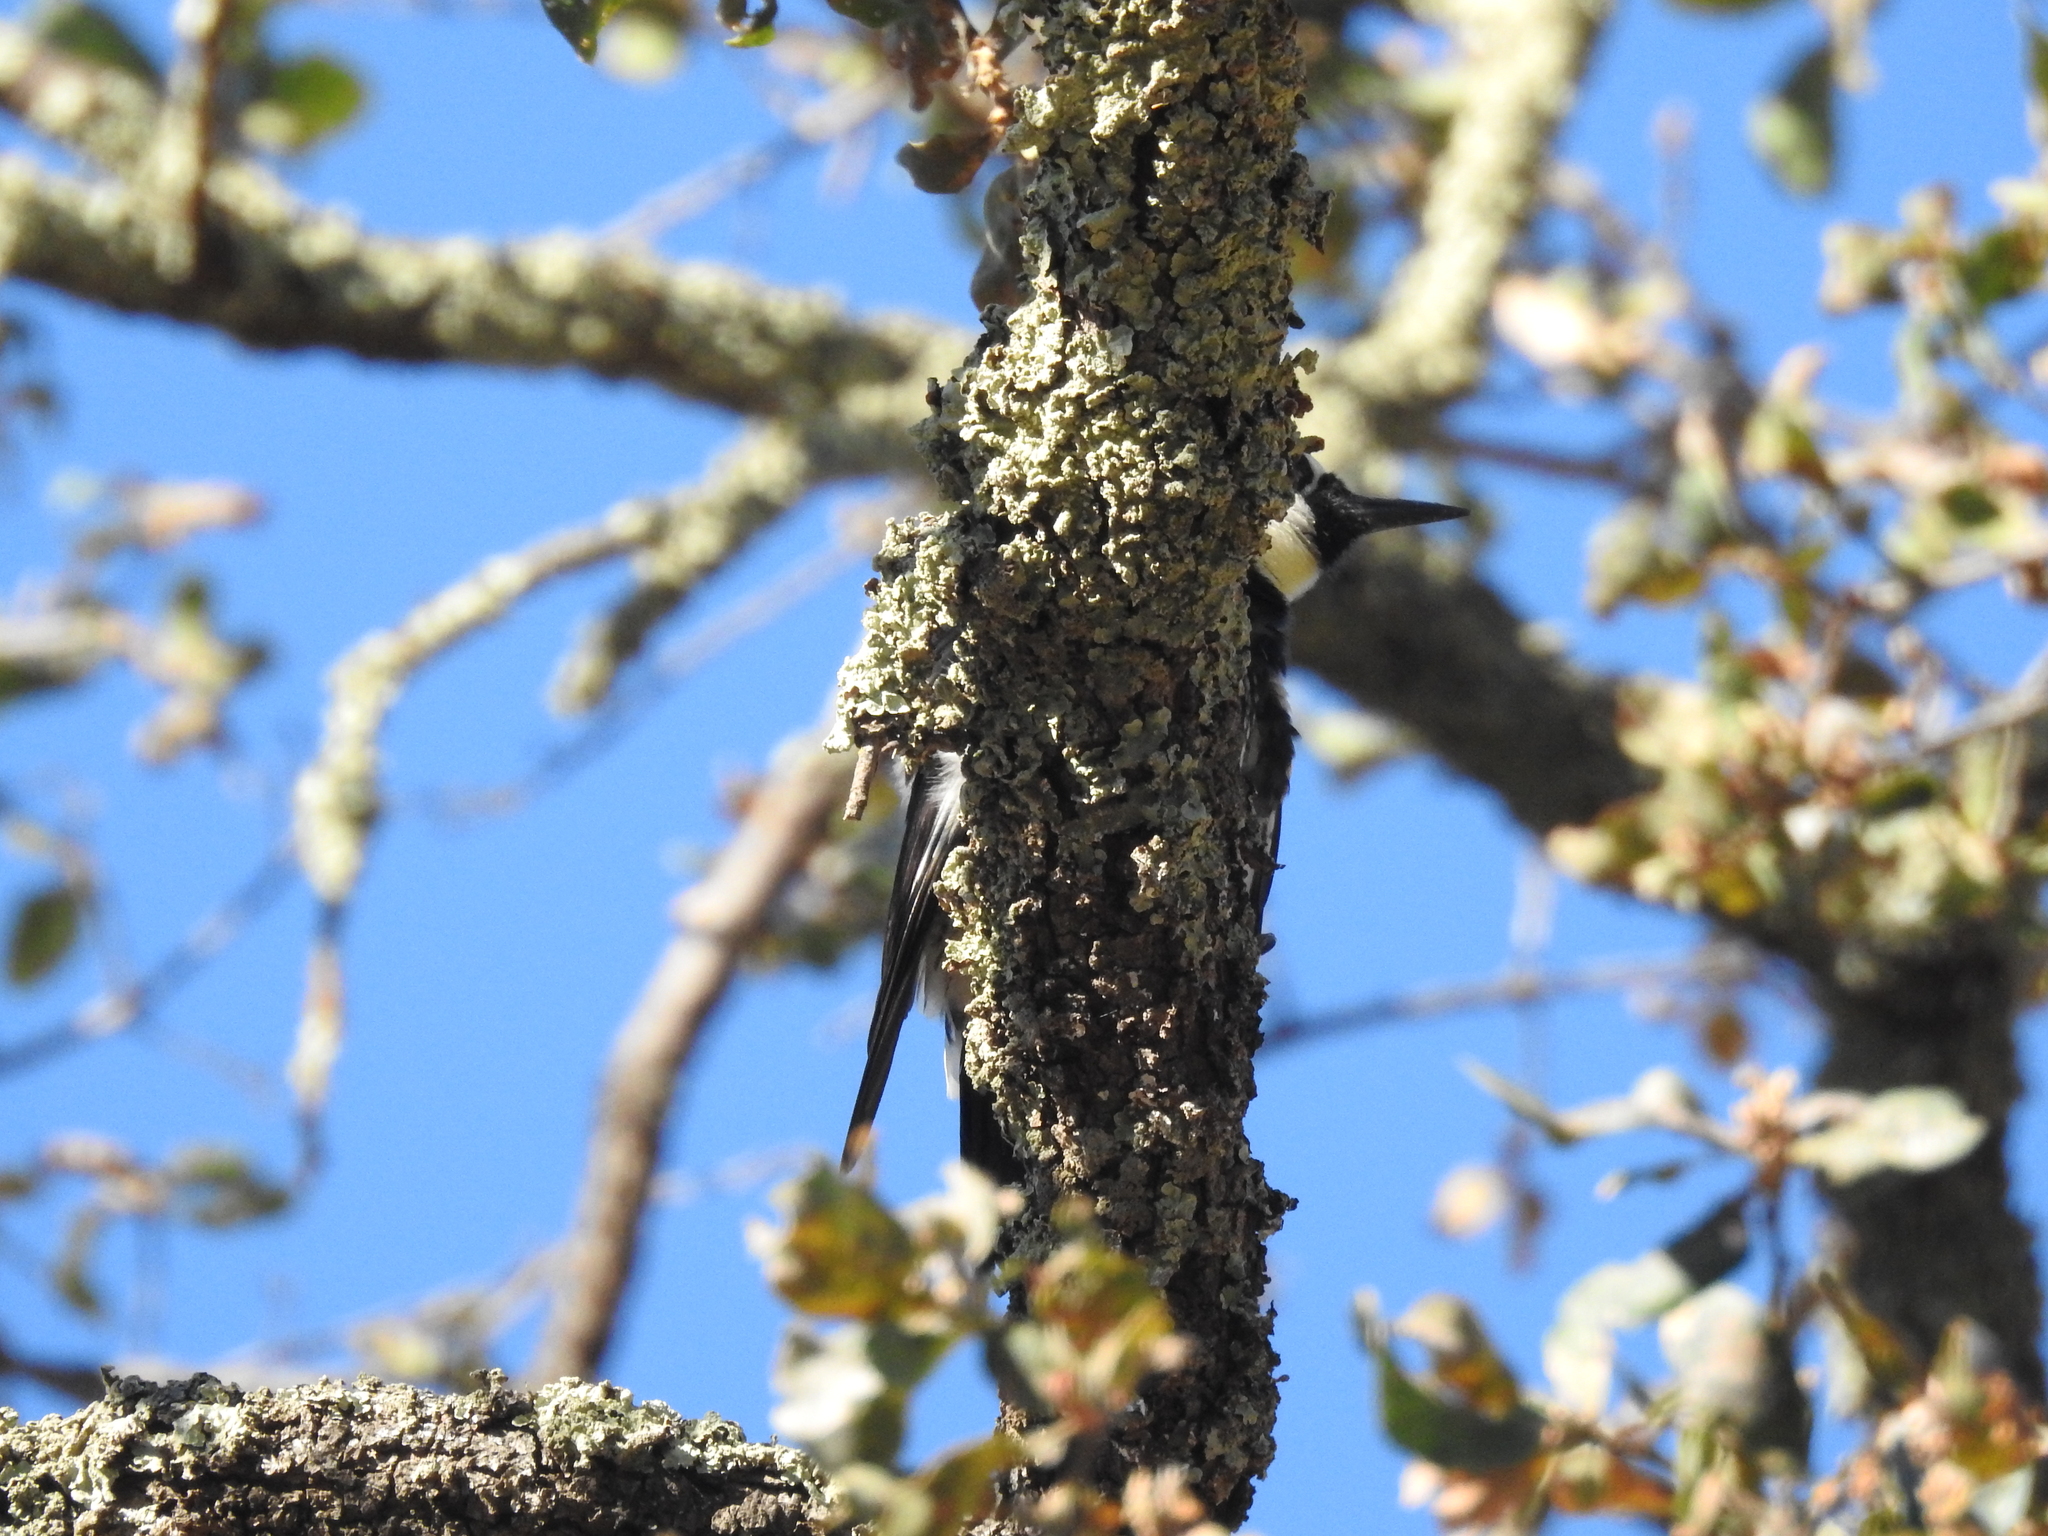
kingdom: Animalia
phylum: Chordata
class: Aves
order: Piciformes
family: Picidae
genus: Melanerpes
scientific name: Melanerpes formicivorus
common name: Acorn woodpecker
